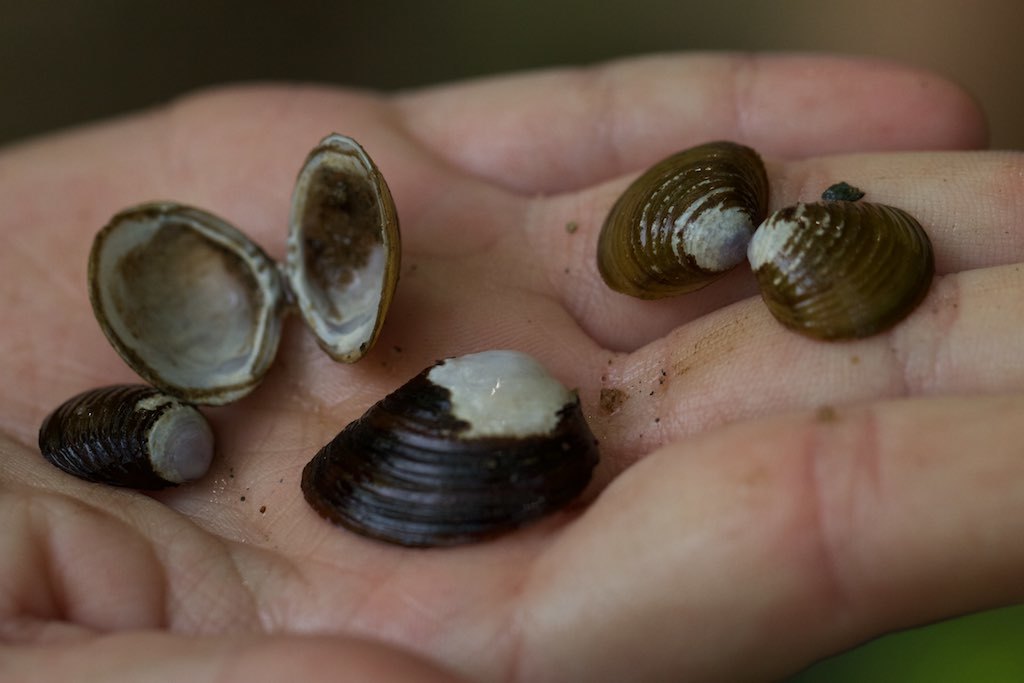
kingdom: Animalia
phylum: Mollusca
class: Bivalvia
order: Venerida
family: Cyrenidae
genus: Corbicula
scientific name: Corbicula fluminea
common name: Asian clam
